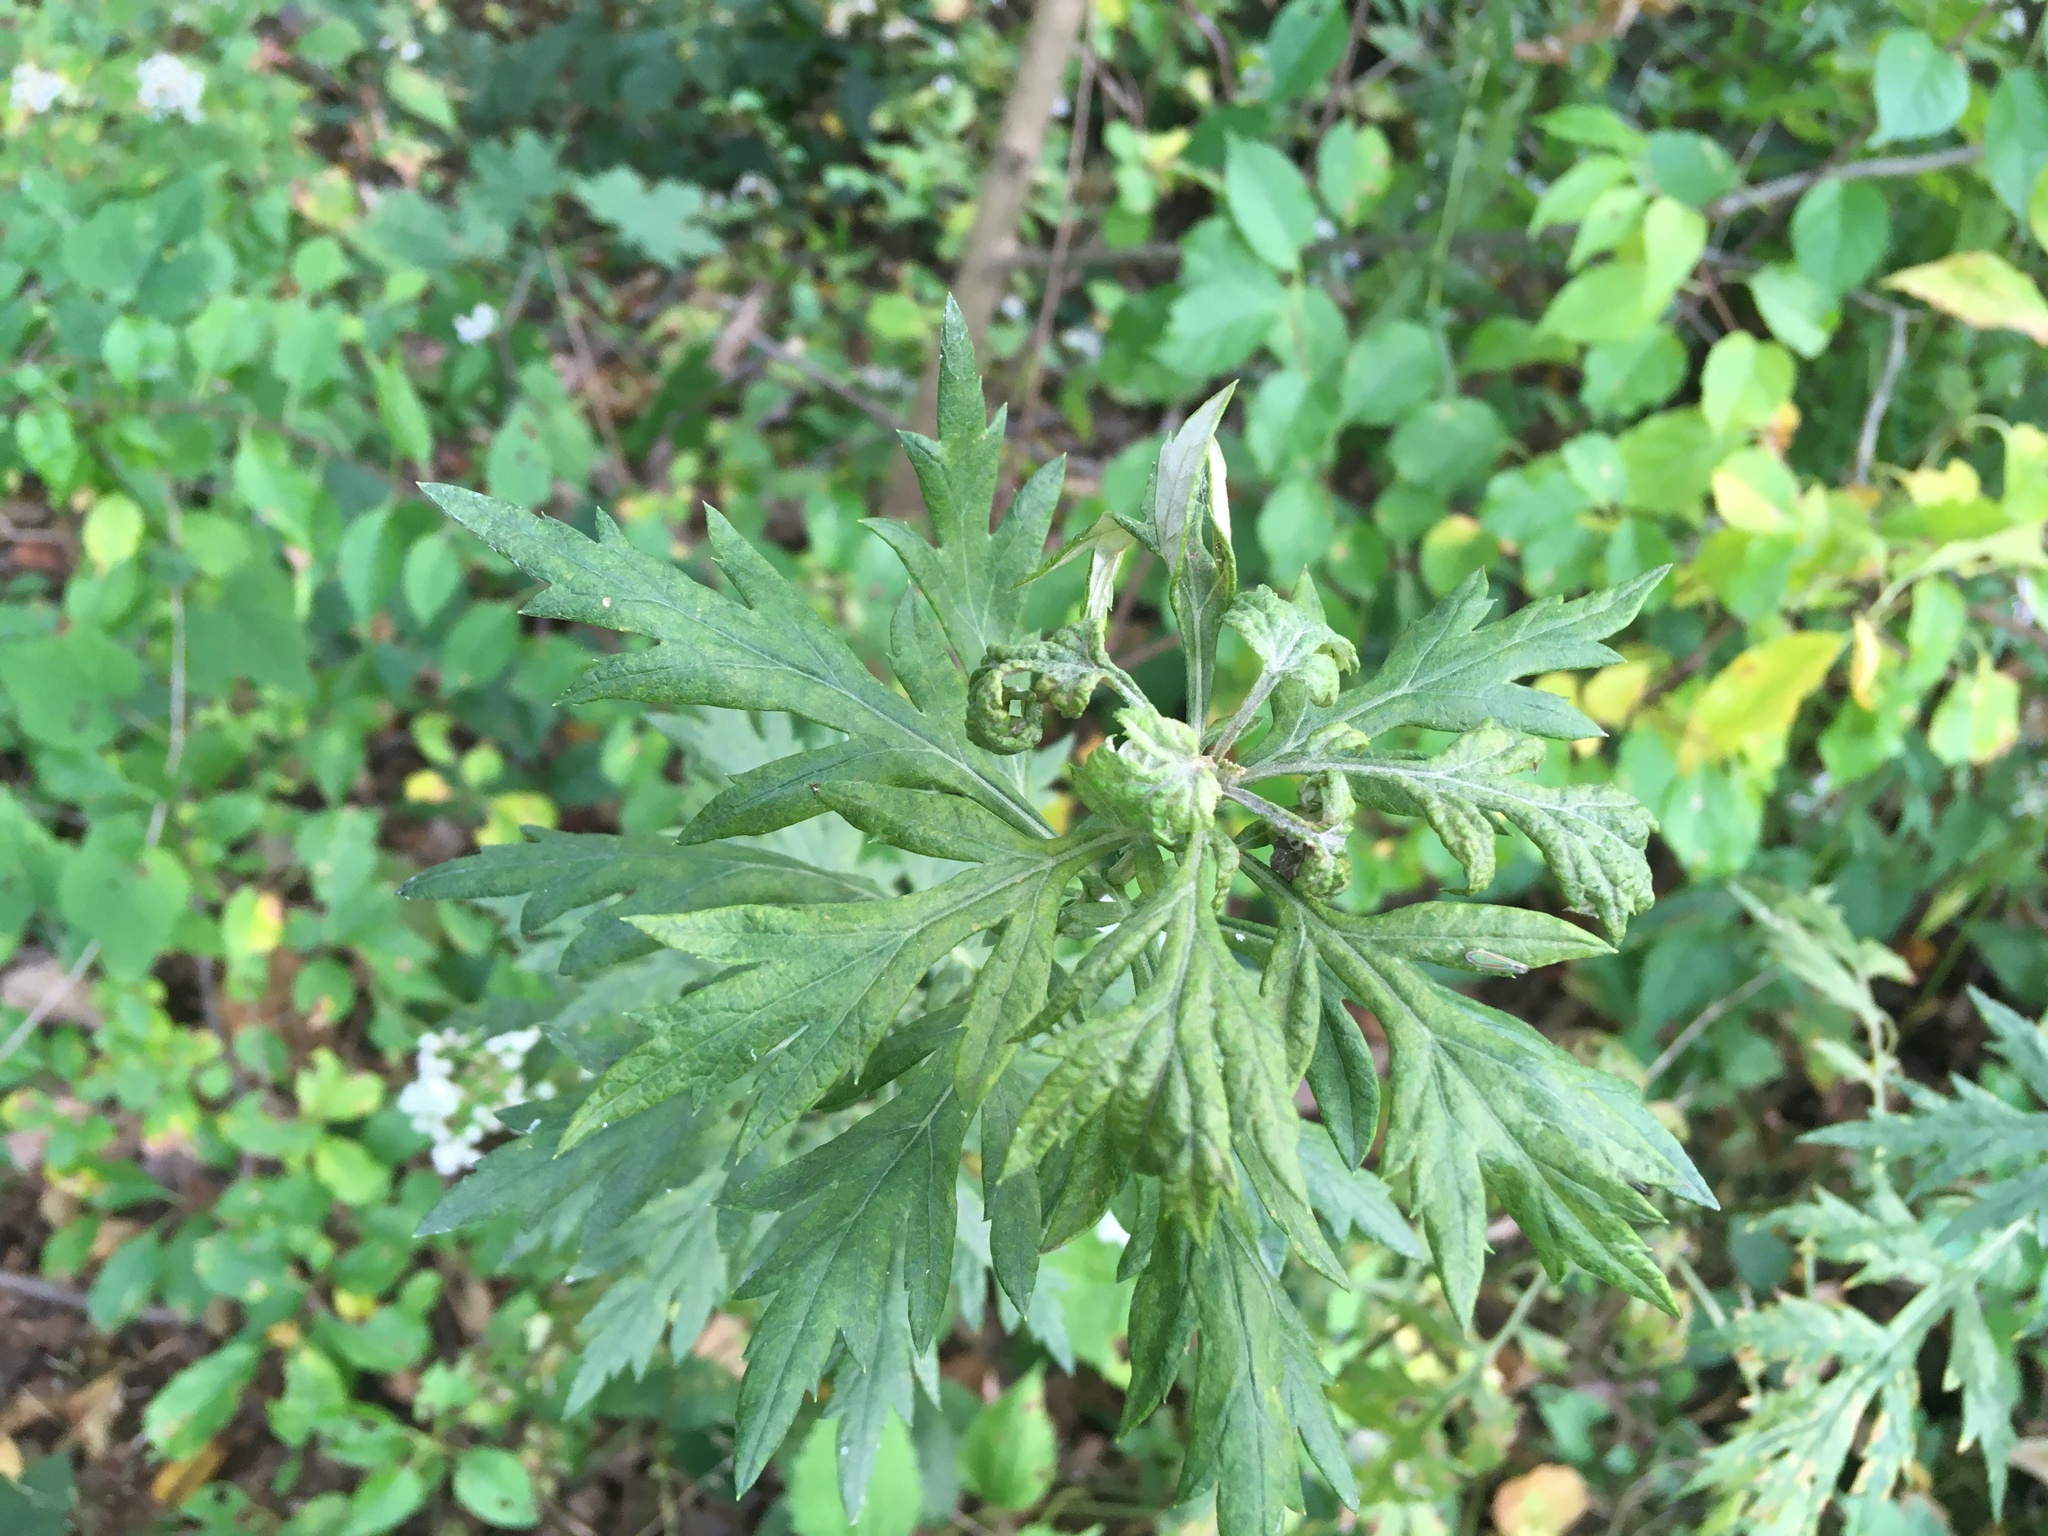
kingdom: Plantae
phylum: Tracheophyta
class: Magnoliopsida
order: Asterales
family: Asteraceae
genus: Artemisia
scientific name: Artemisia vulgaris
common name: Mugwort
